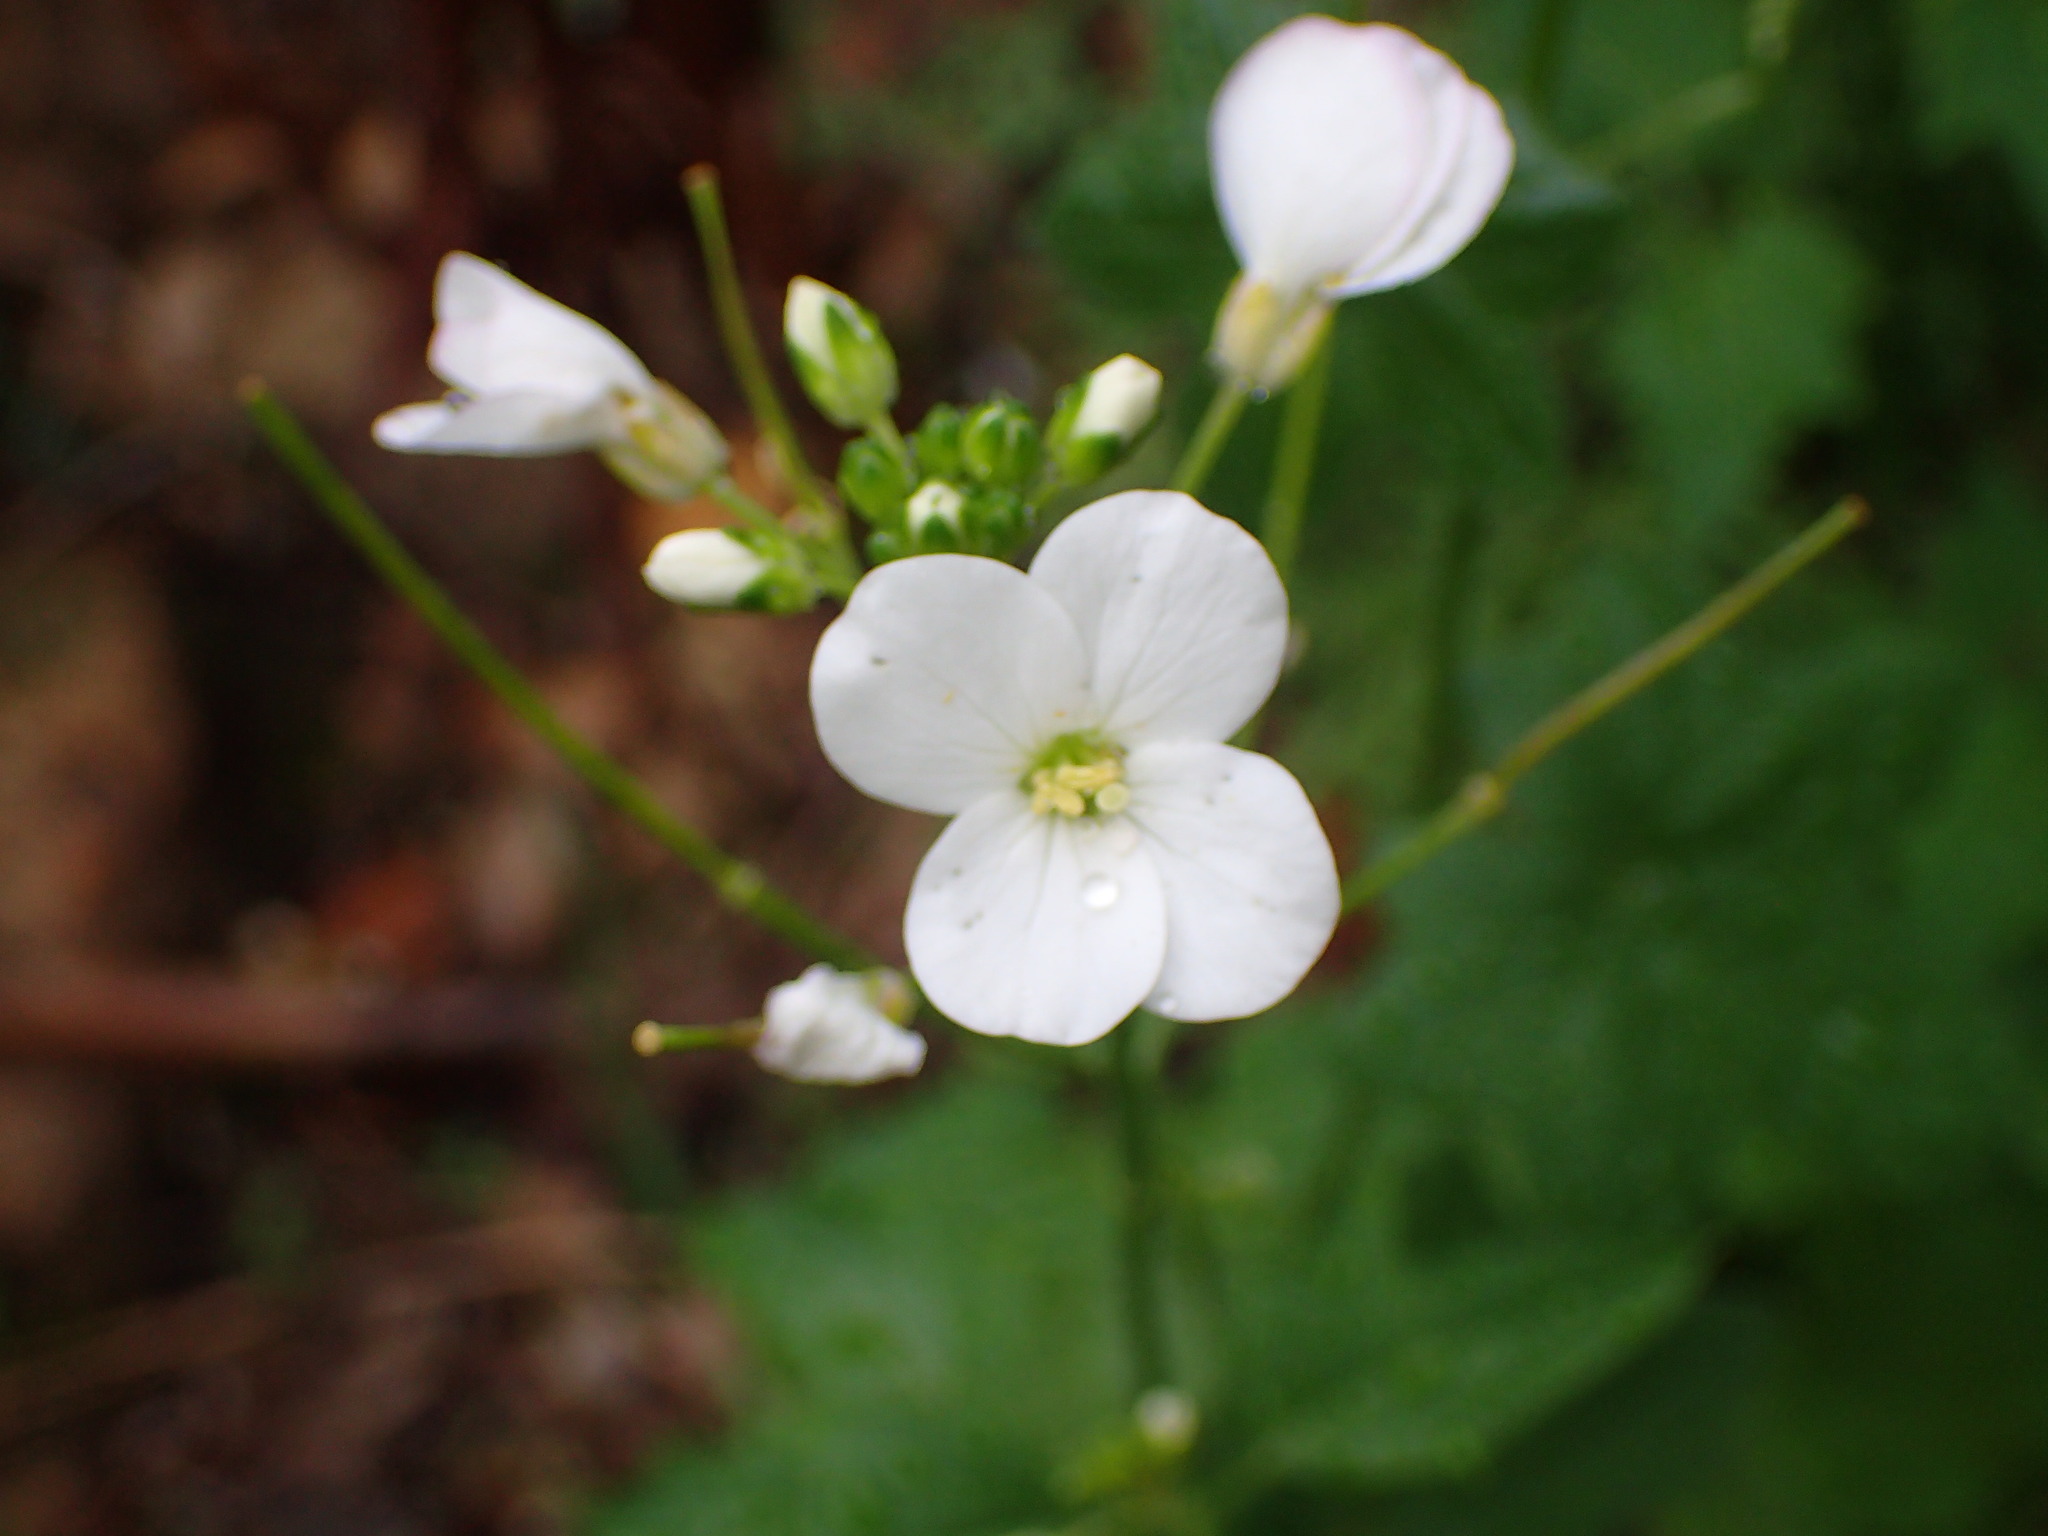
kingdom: Plantae
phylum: Tracheophyta
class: Magnoliopsida
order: Brassicales
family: Brassicaceae
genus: Cardamine
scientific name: Cardamine californica
